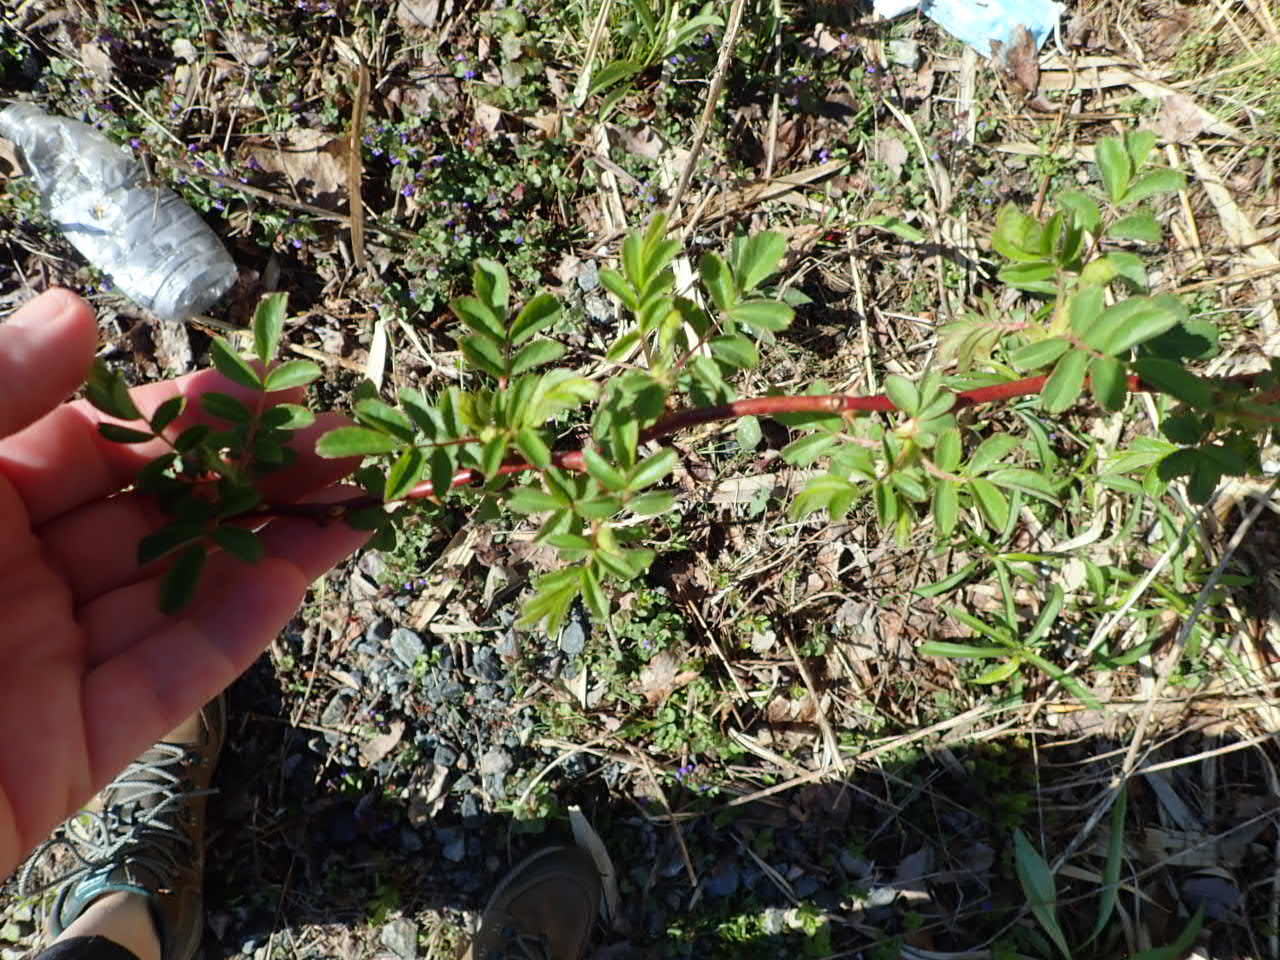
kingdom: Plantae
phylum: Tracheophyta
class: Magnoliopsida
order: Rosales
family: Rosaceae
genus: Rosa
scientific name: Rosa multiflora
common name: Multiflora rose
